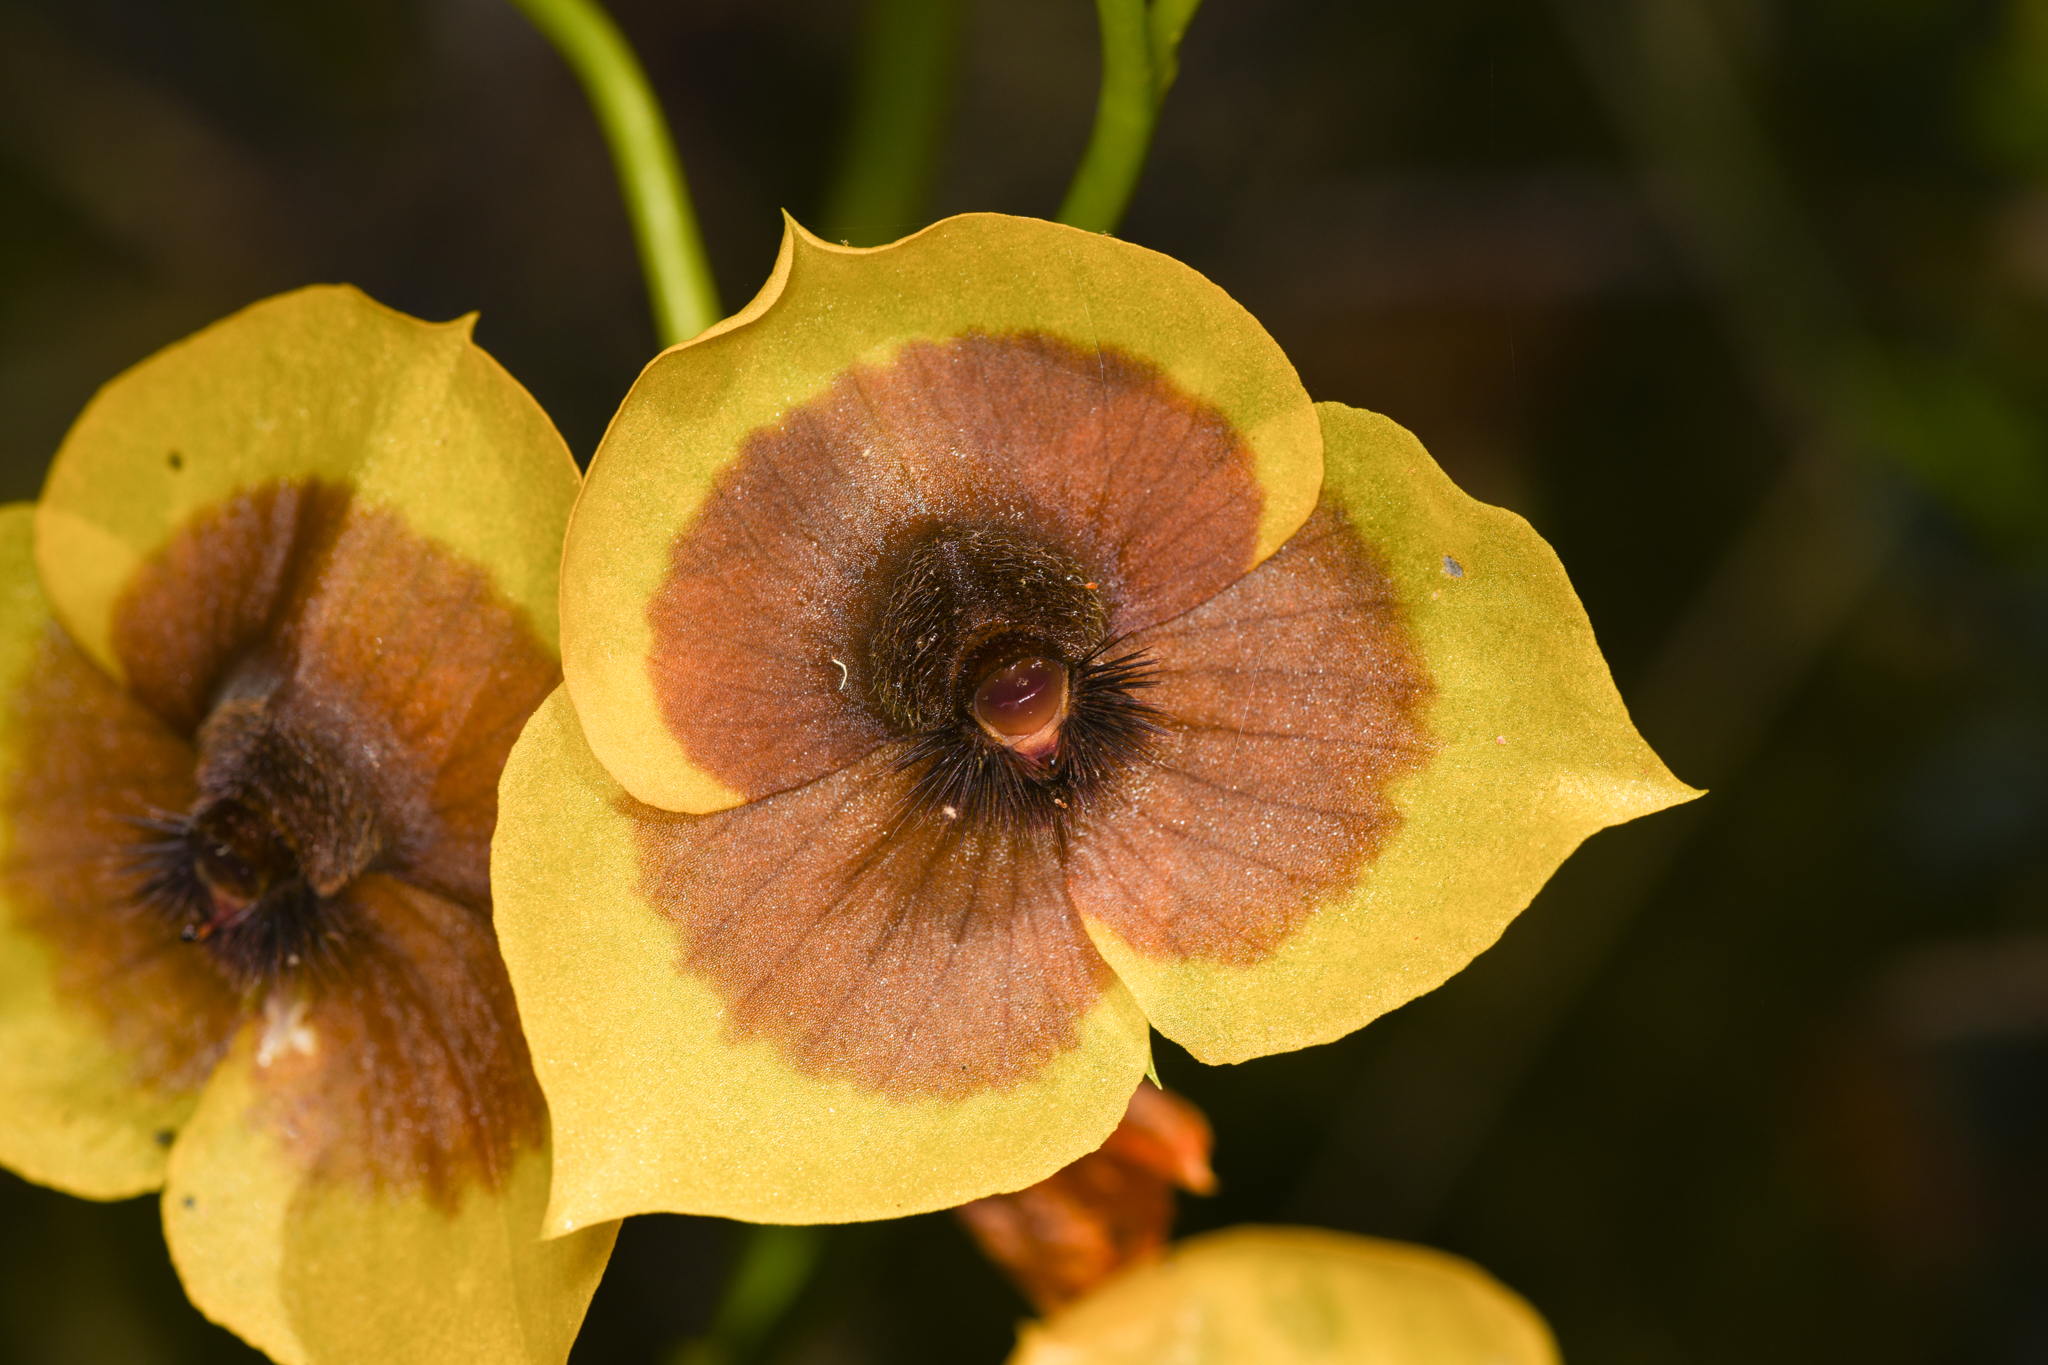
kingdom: Plantae
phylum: Tracheophyta
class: Liliopsida
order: Asparagales
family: Orchidaceae
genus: Telipogon
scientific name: Telipogon costaricensis
